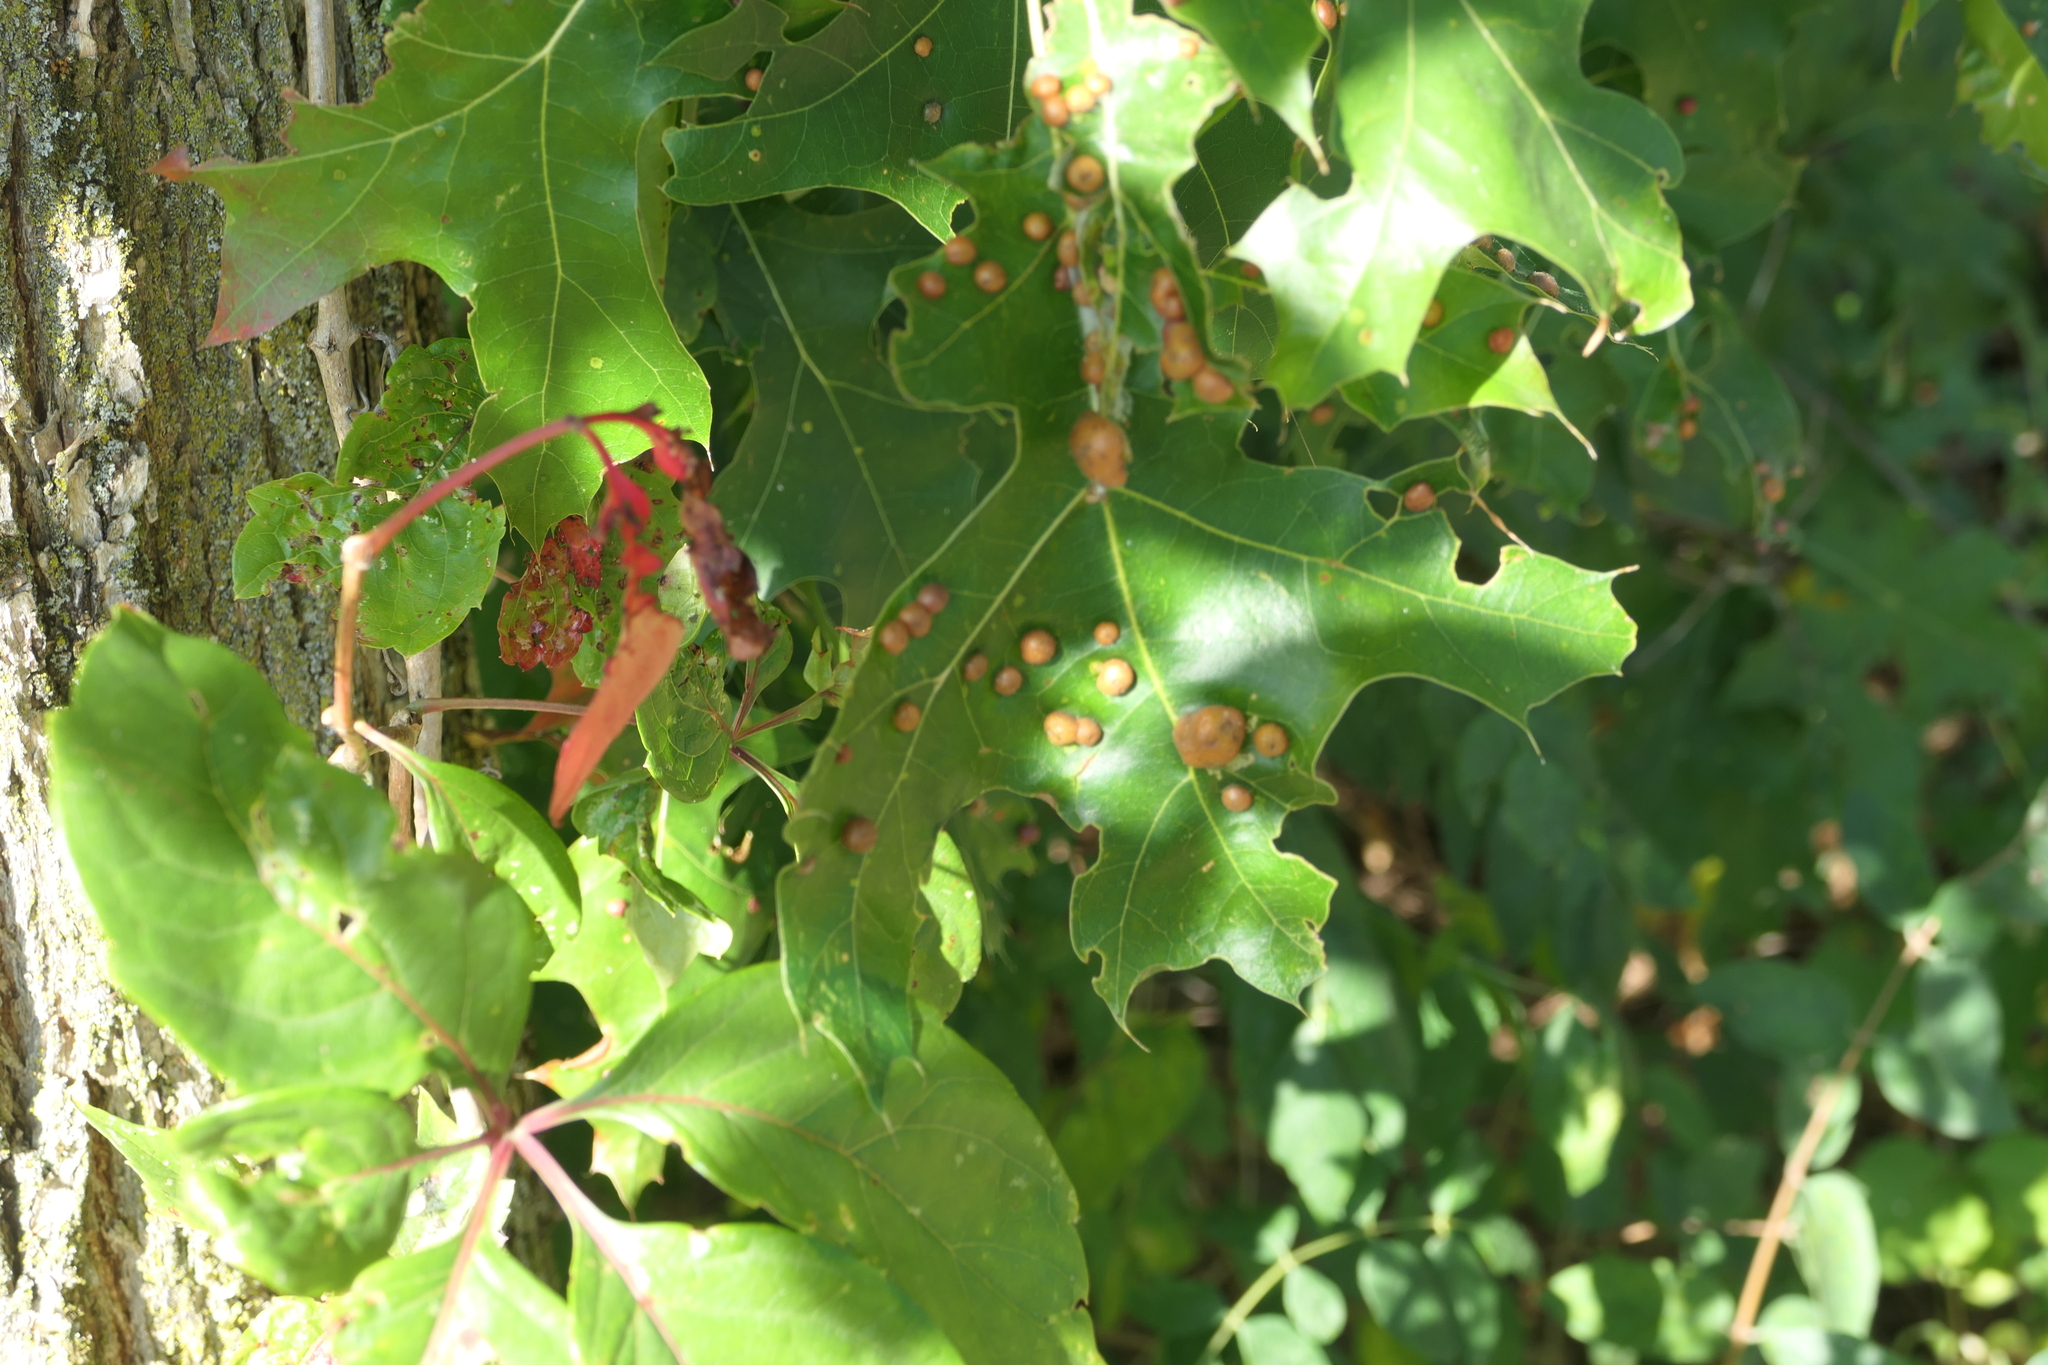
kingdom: Animalia
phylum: Arthropoda
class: Insecta
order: Diptera
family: Cecidomyiidae
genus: Polystepha
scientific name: Polystepha pilulae
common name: Oak leaf gall midge
